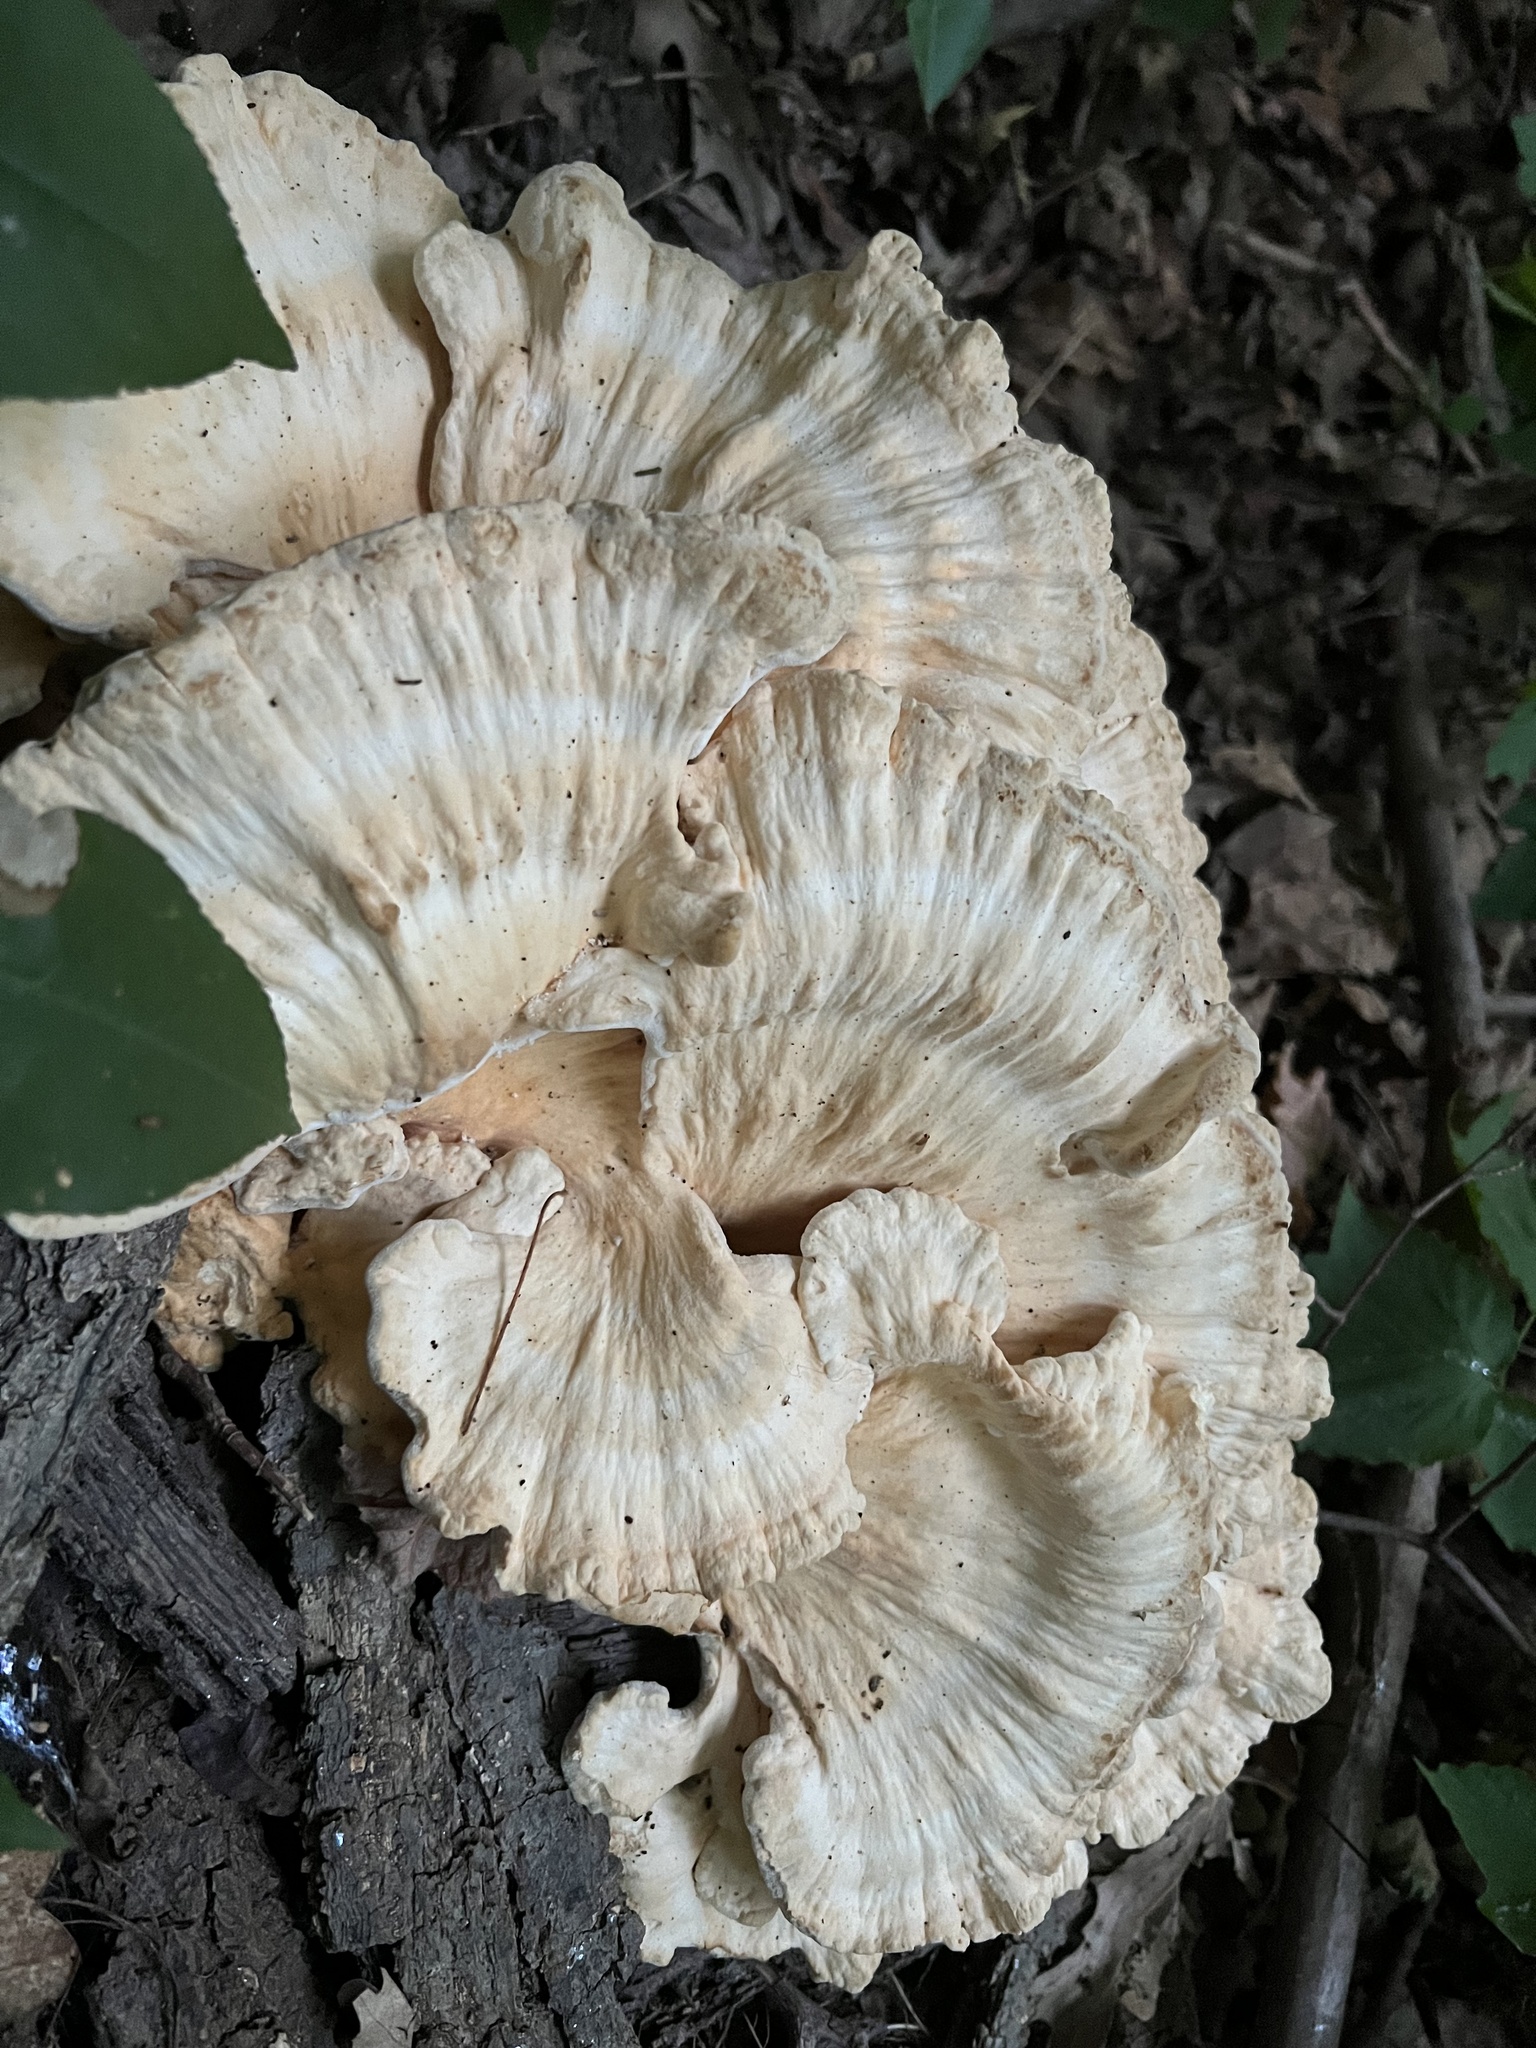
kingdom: Fungi
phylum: Basidiomycota
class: Agaricomycetes
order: Polyporales
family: Laetiporaceae
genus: Laetiporus
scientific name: Laetiporus sulphureus
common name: Chicken of the woods
